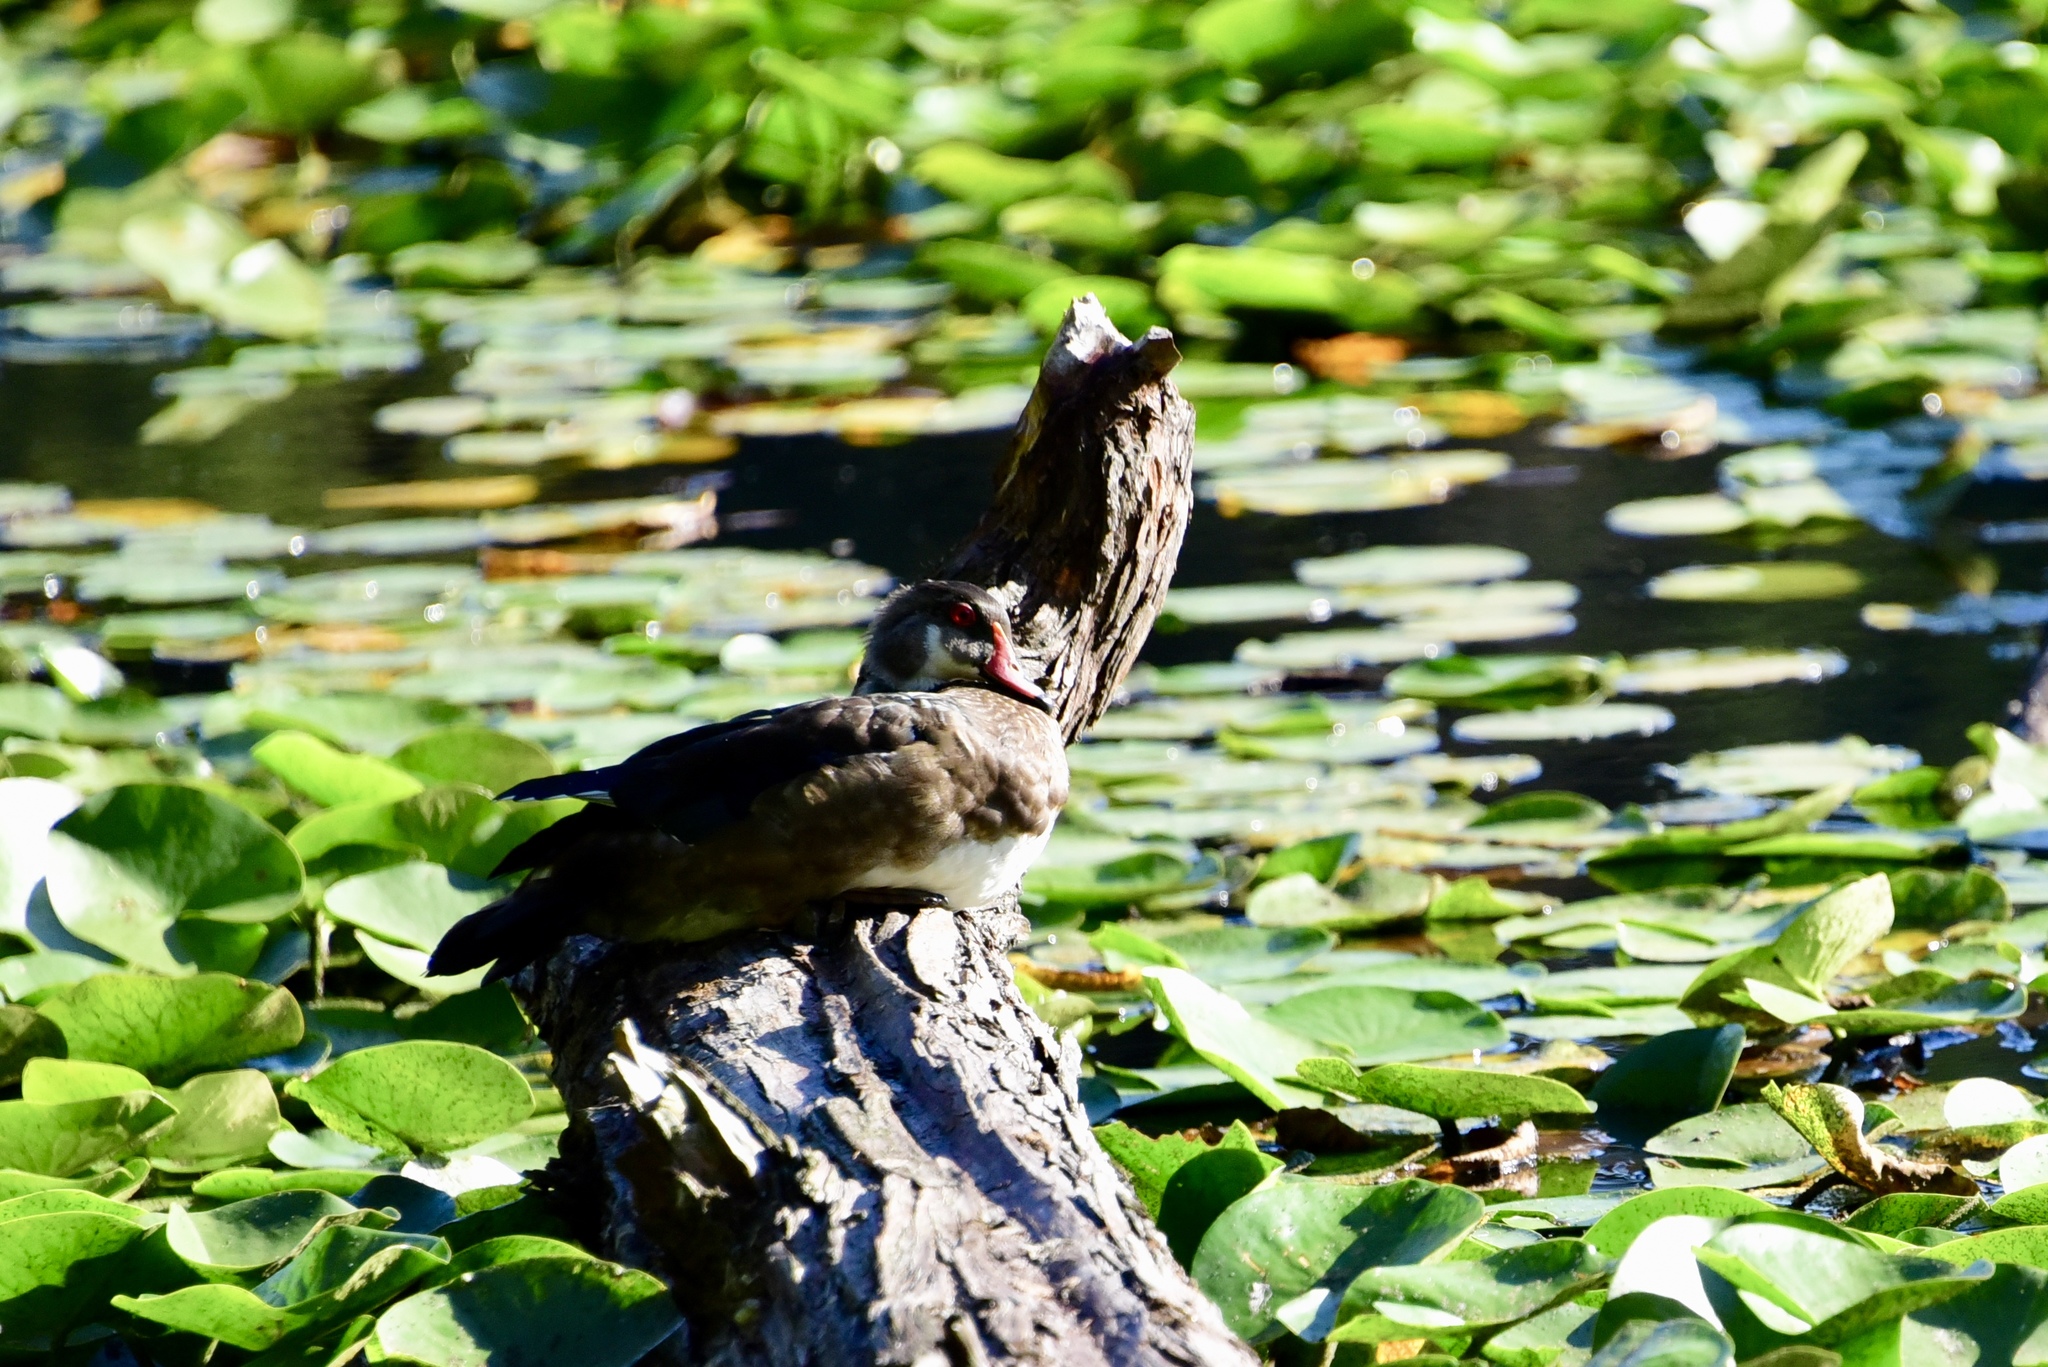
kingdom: Animalia
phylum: Chordata
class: Aves
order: Anseriformes
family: Anatidae
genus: Aix
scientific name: Aix sponsa
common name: Wood duck
